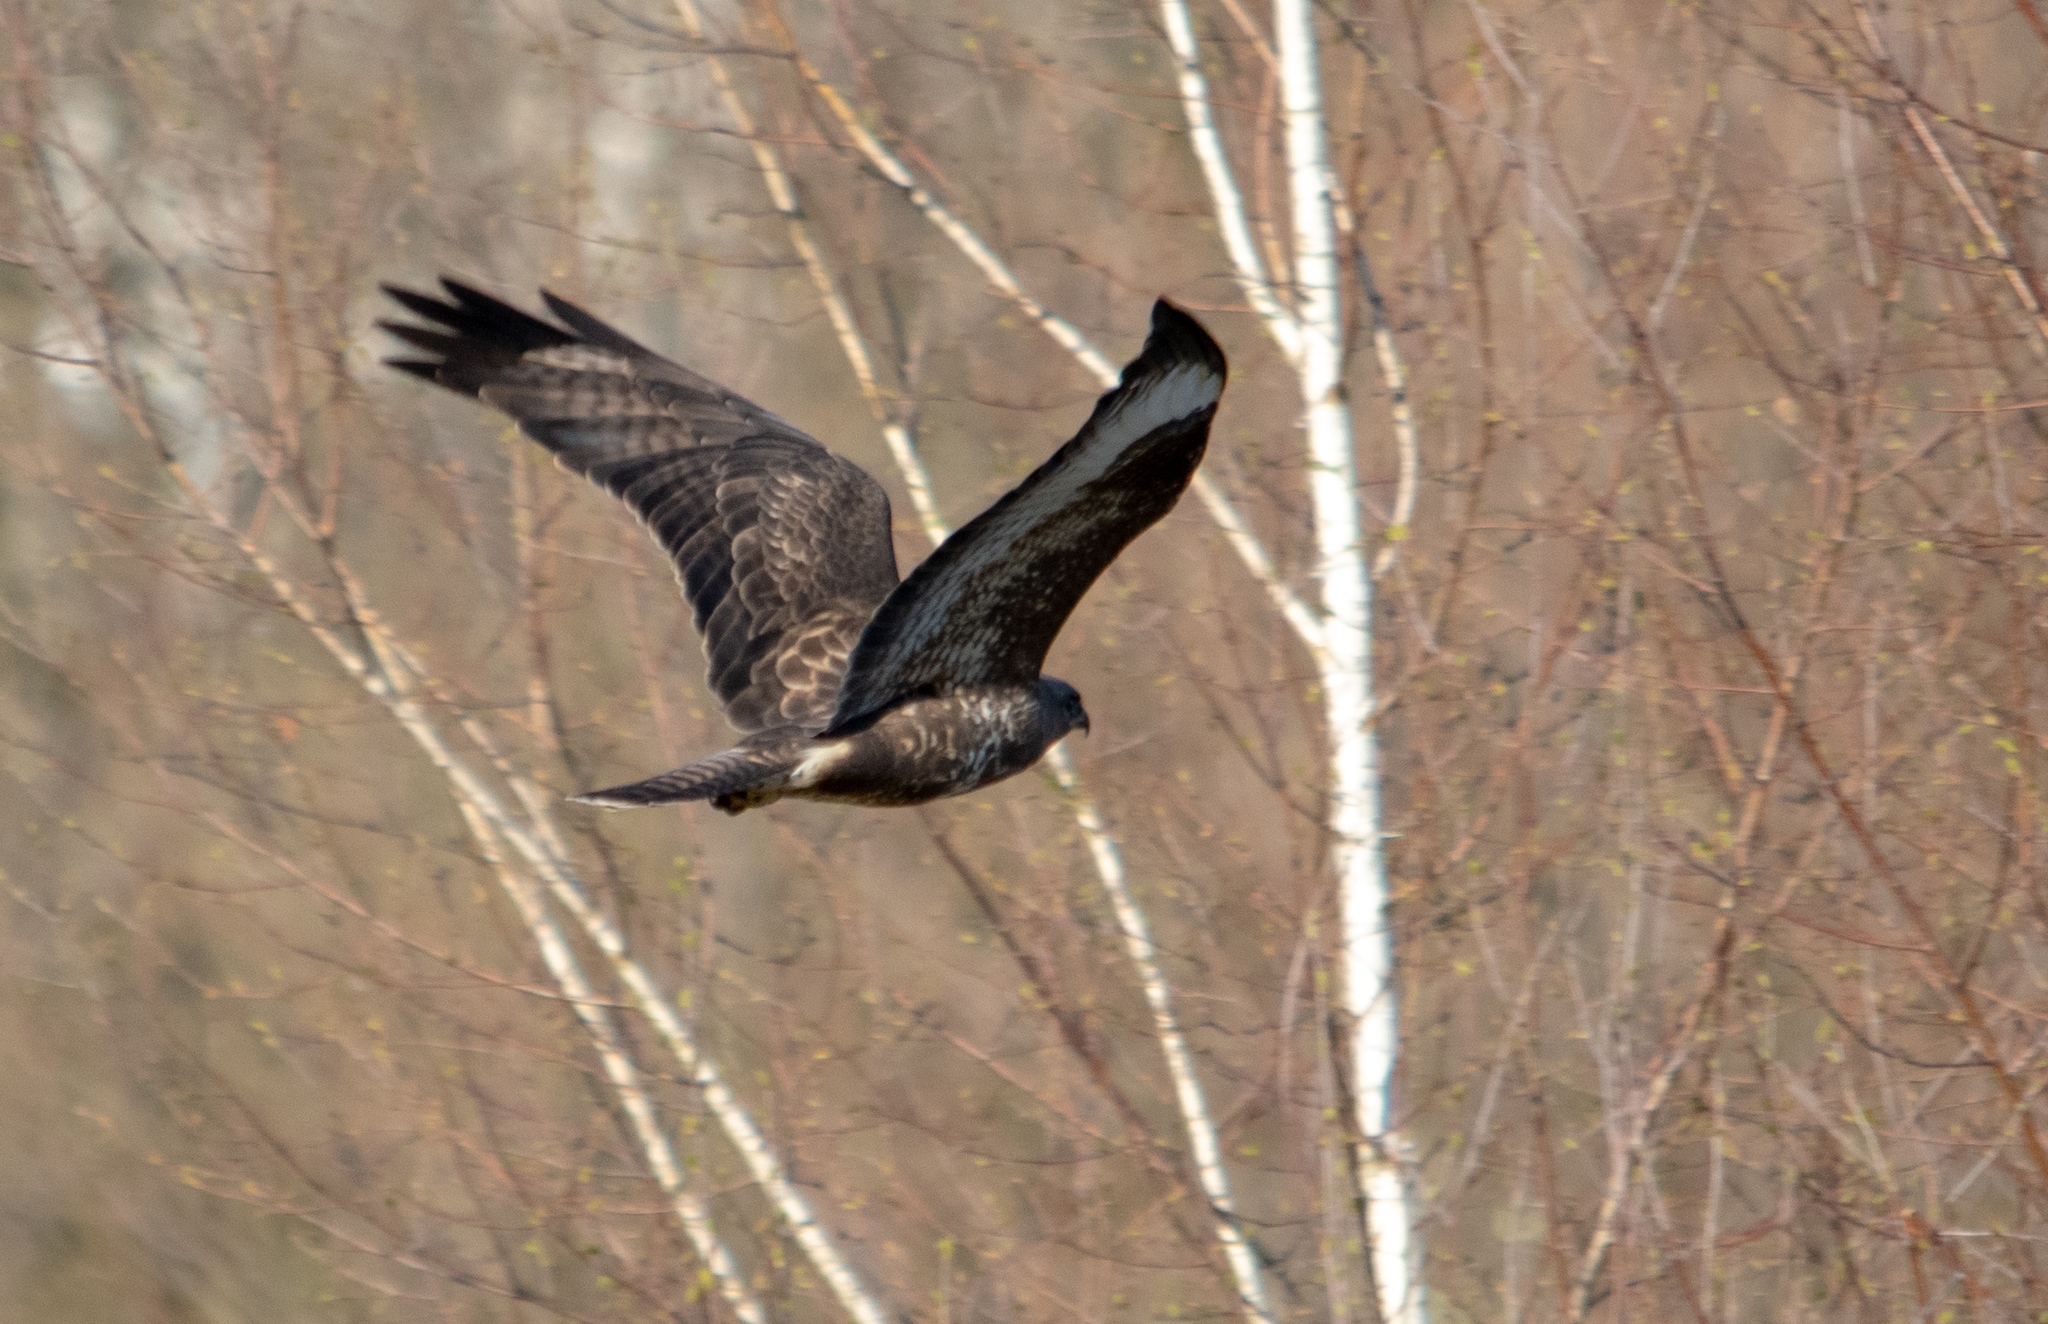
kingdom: Animalia
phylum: Chordata
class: Aves
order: Accipitriformes
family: Accipitridae
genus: Buteo
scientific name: Buteo buteo
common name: Common buzzard
